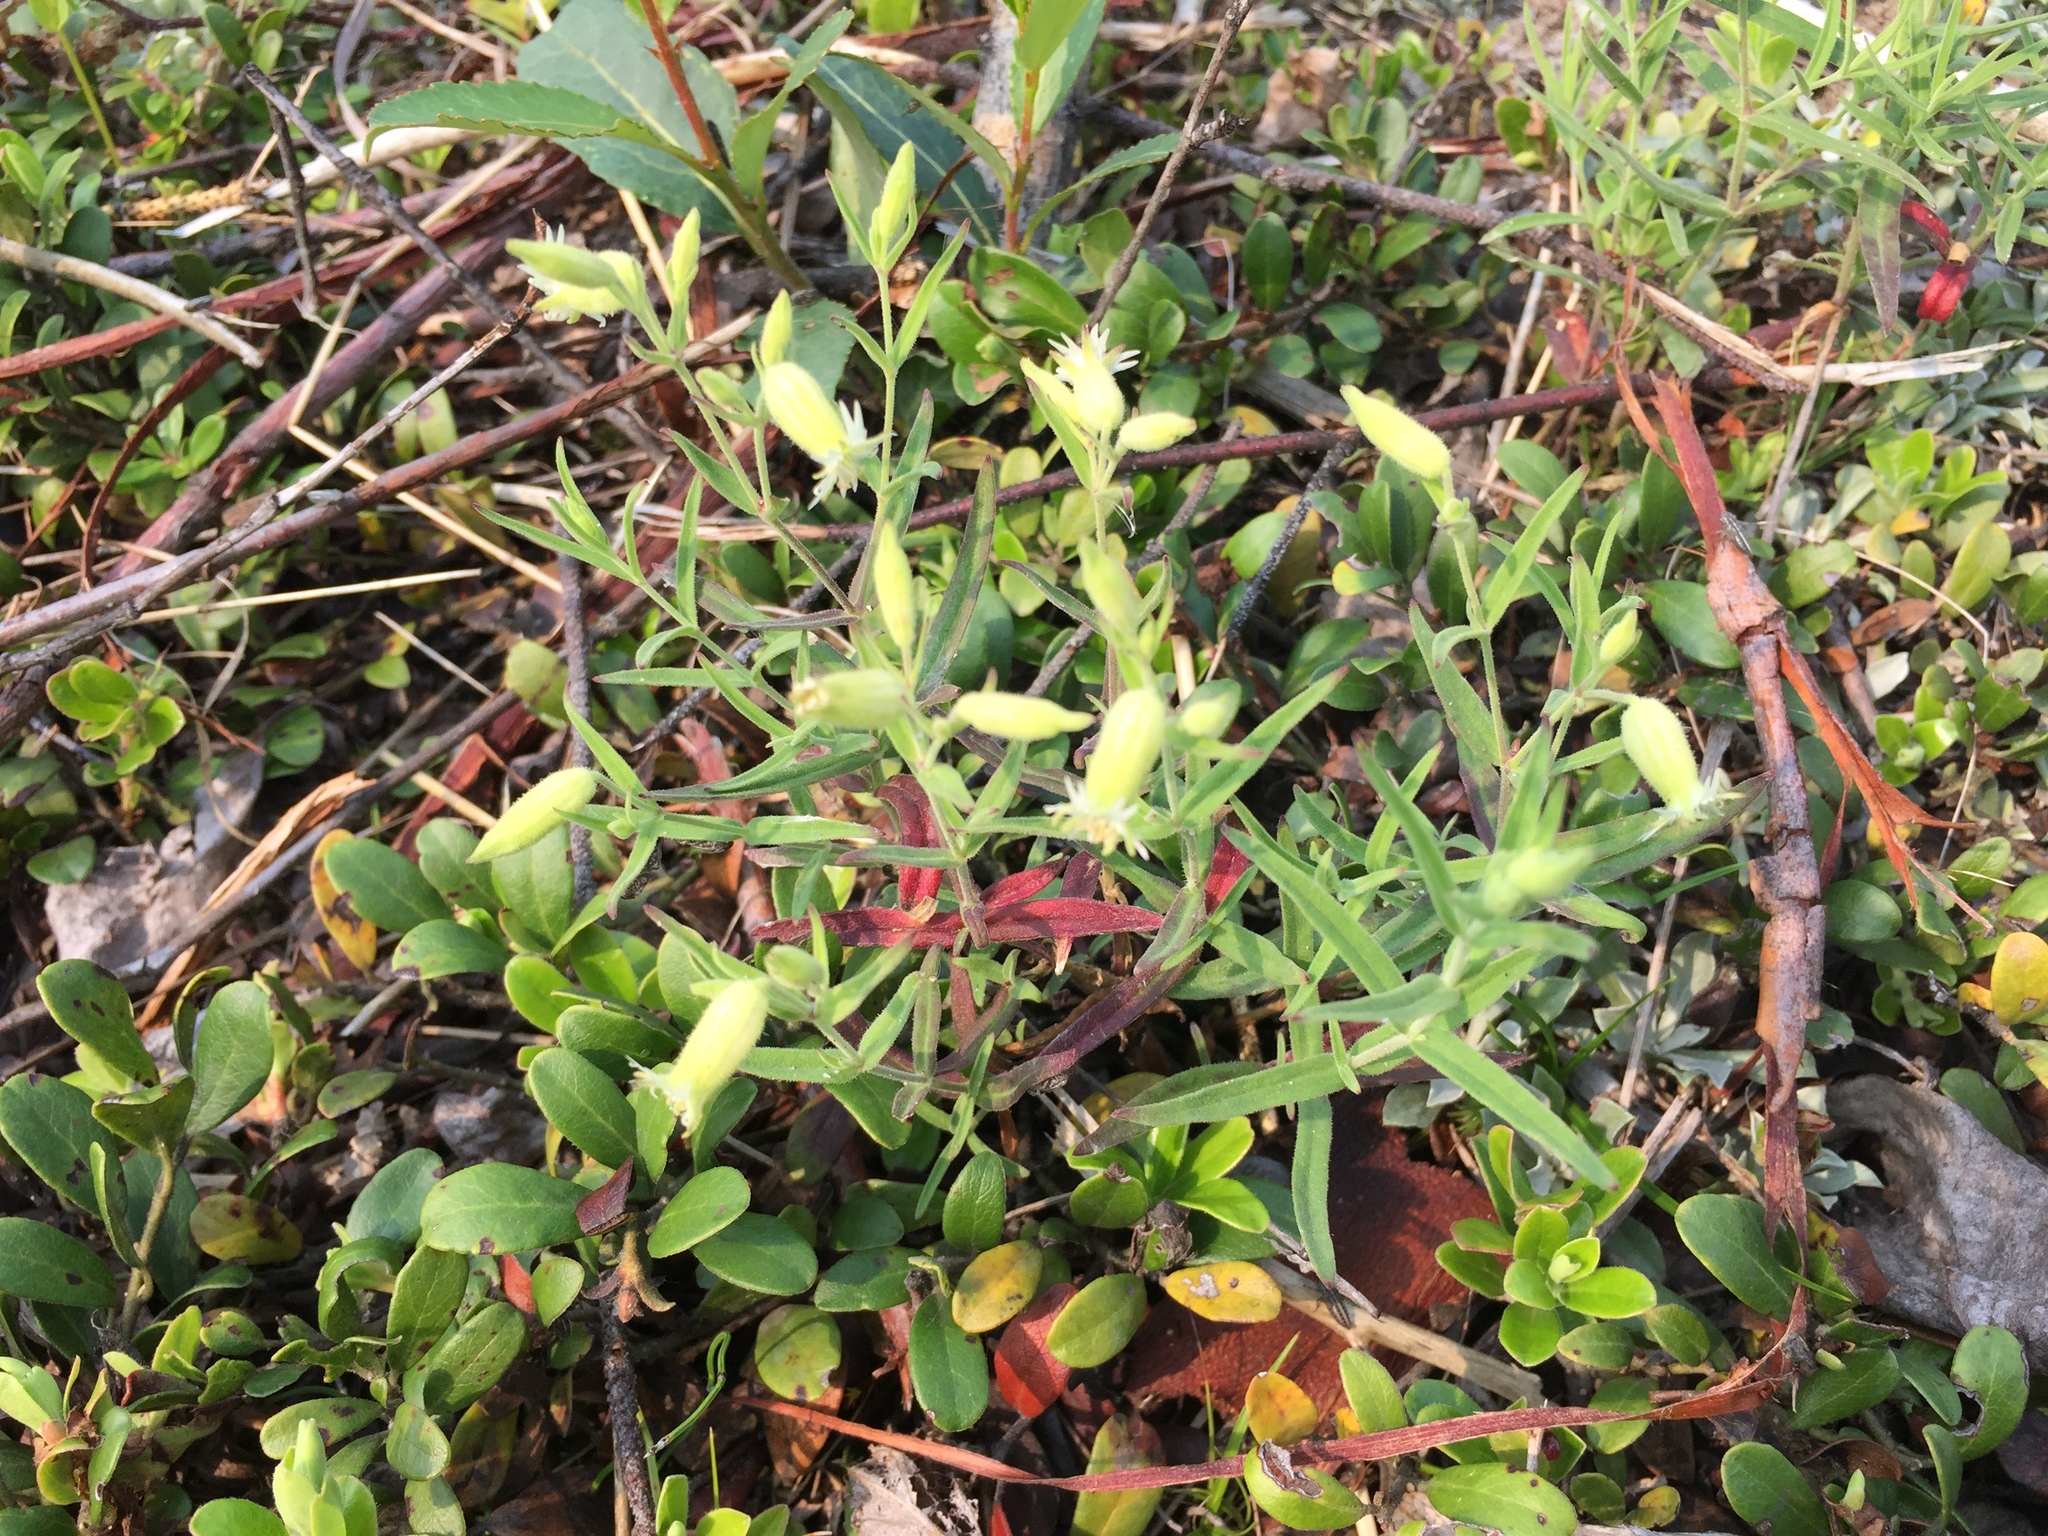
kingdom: Plantae
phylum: Tracheophyta
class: Magnoliopsida
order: Caryophyllales
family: Caryophyllaceae
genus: Silene
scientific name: Silene williamsii
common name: Williams' campion
